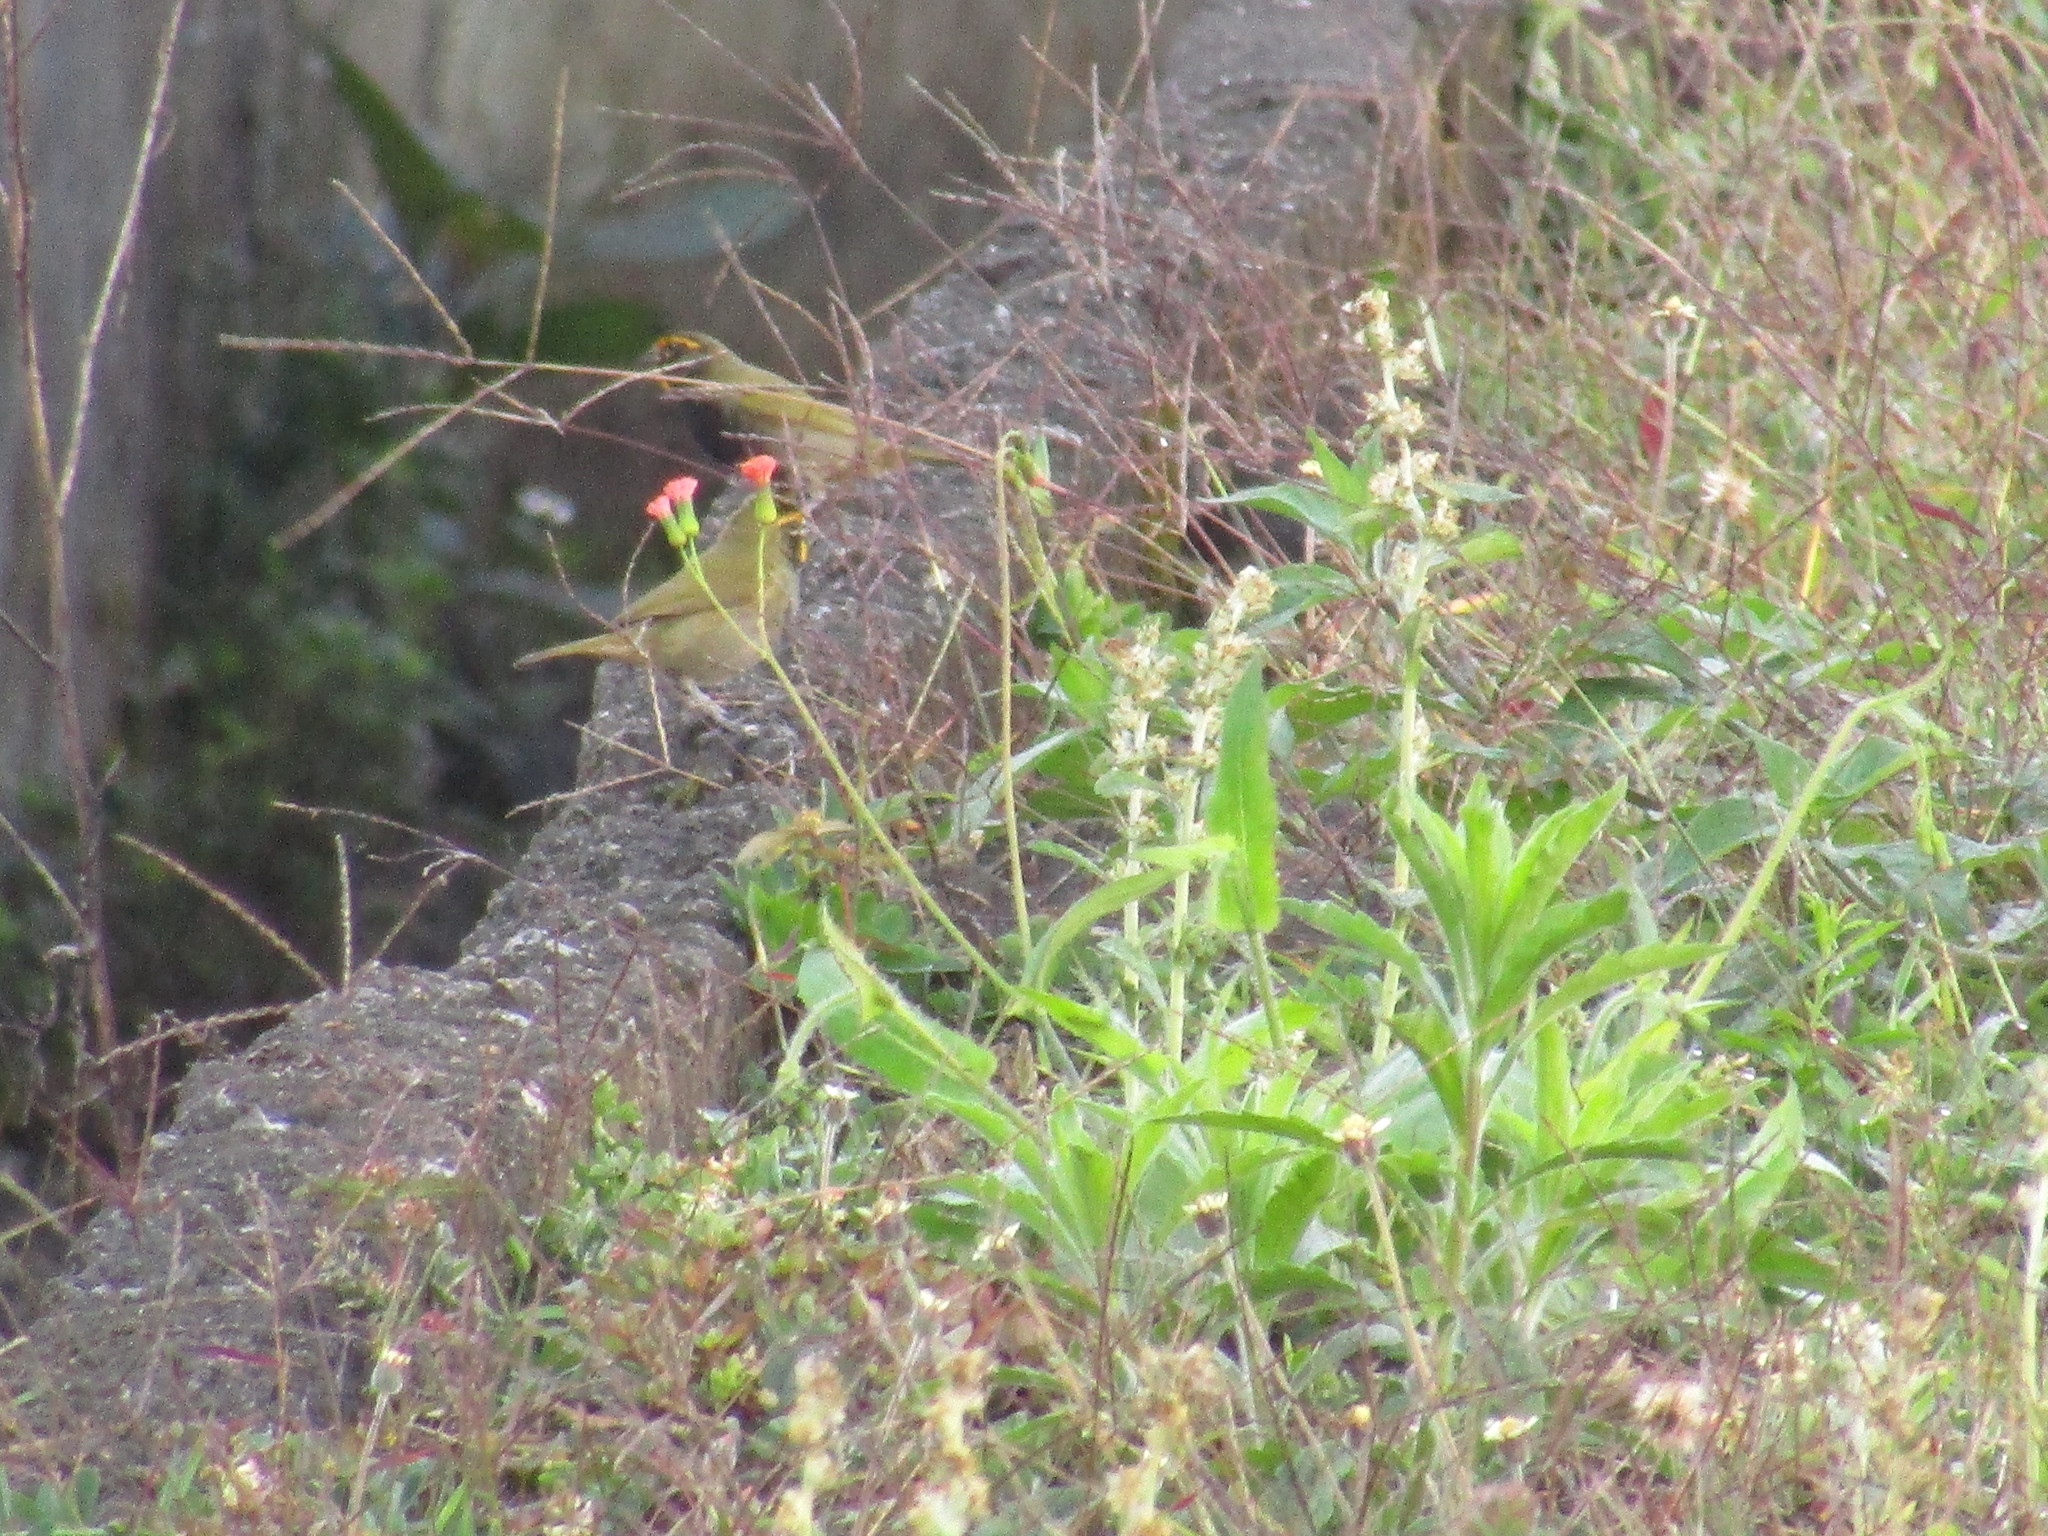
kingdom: Animalia
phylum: Chordata
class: Aves
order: Passeriformes
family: Thraupidae
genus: Tiaris
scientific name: Tiaris olivaceus
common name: Yellow-faced grassquit
